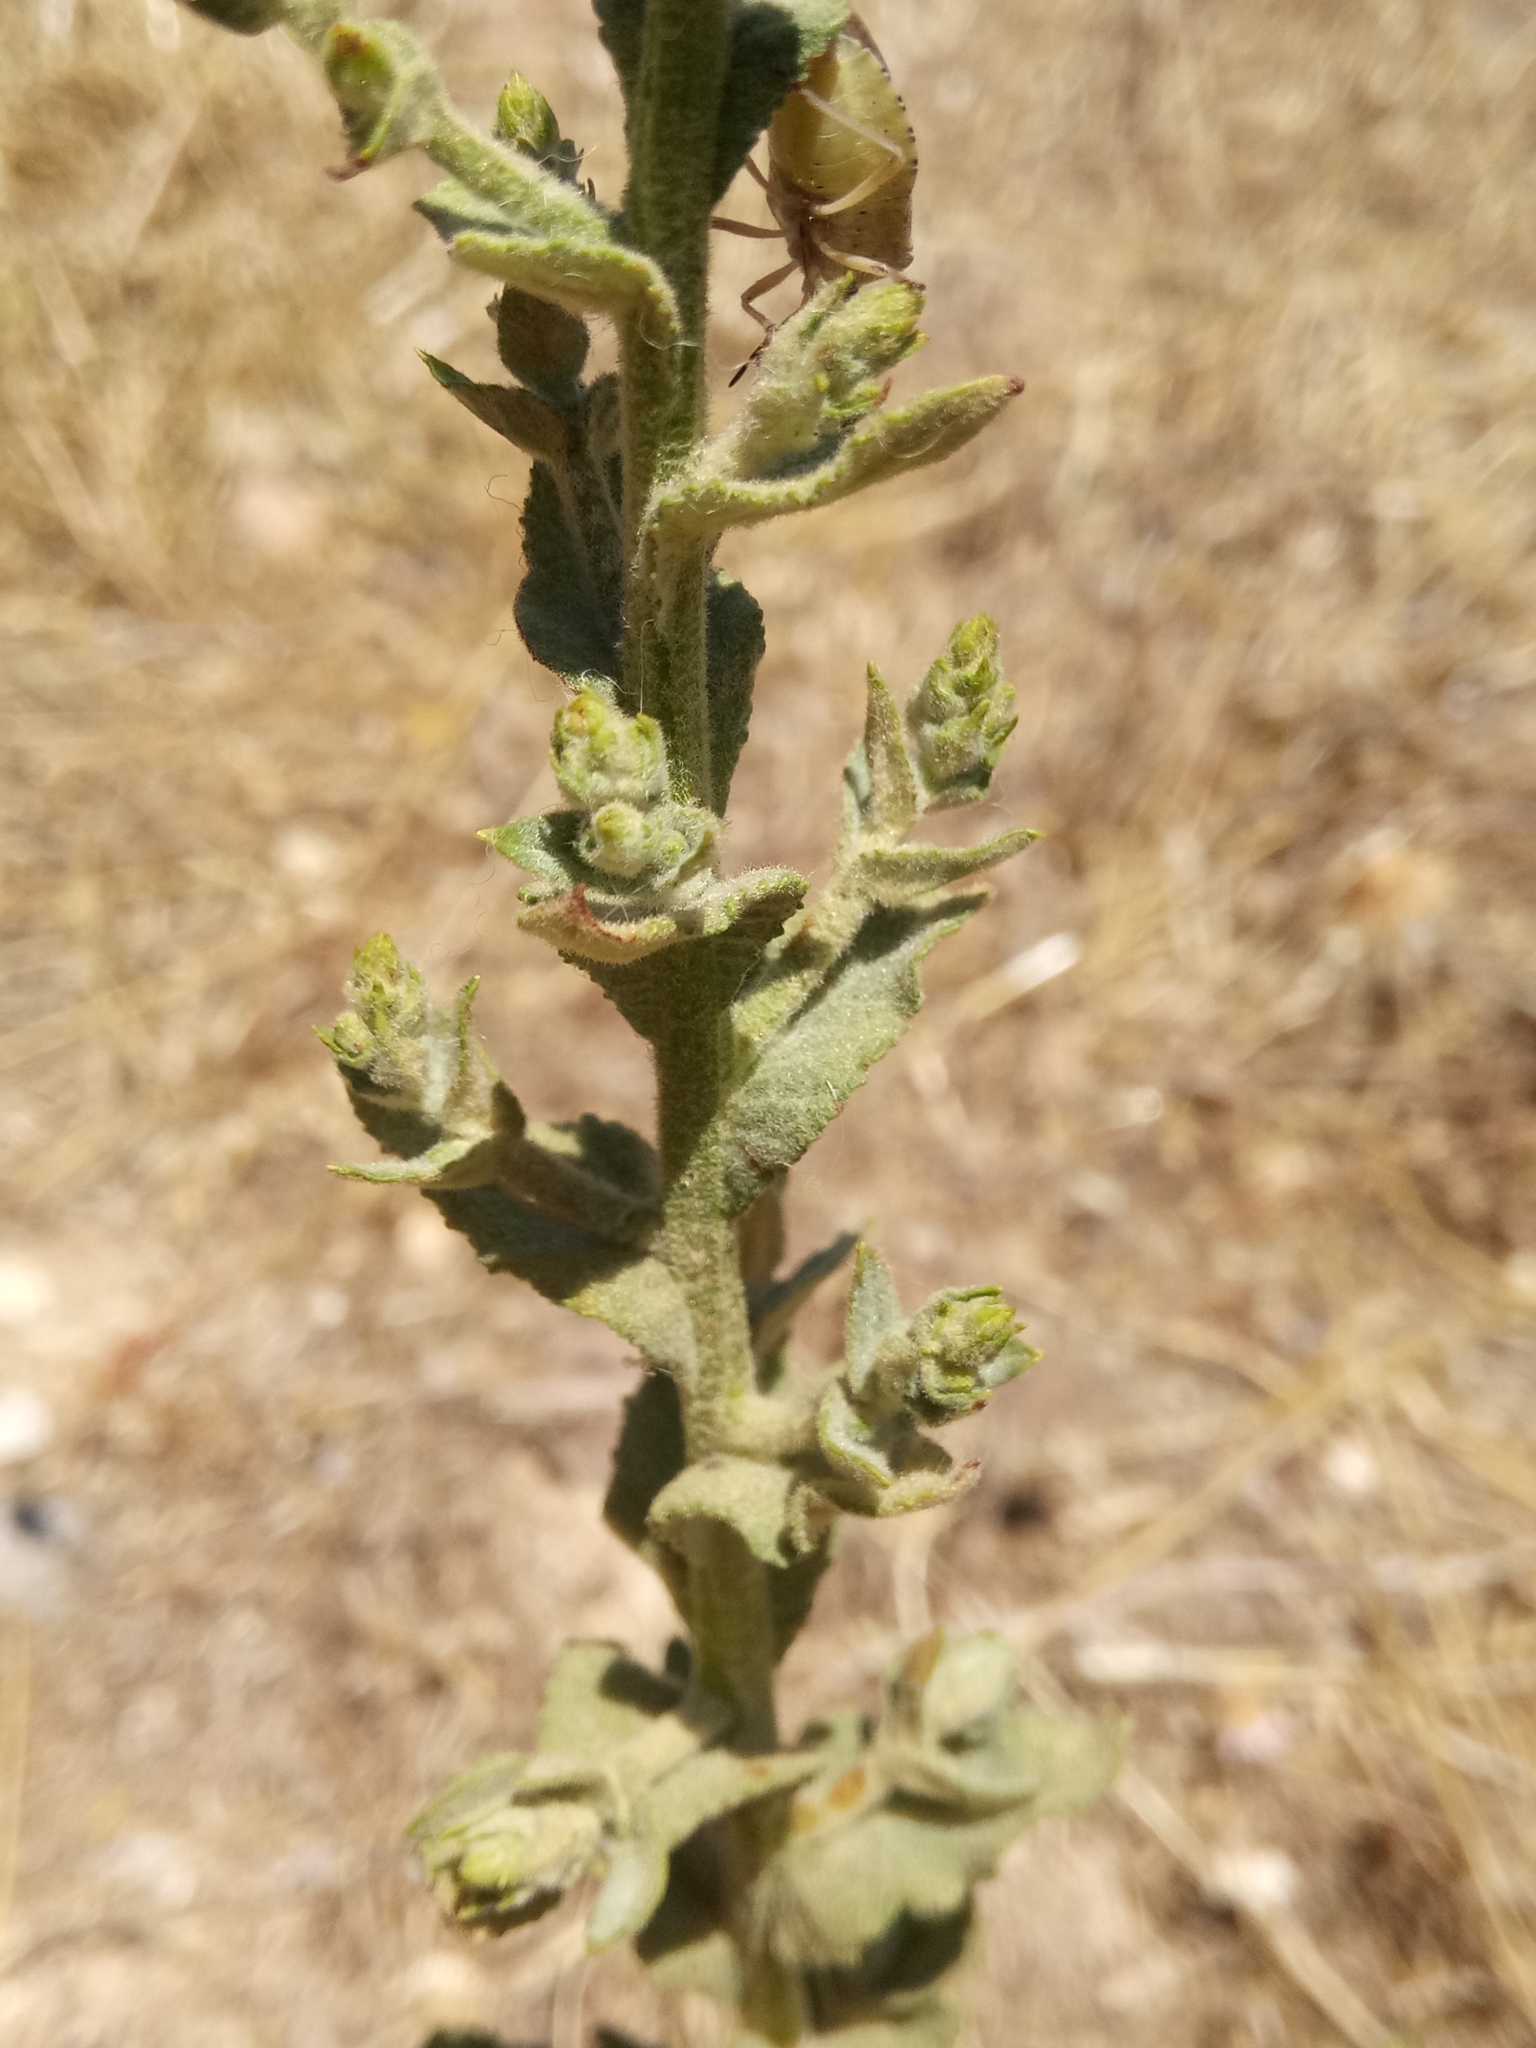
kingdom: Plantae
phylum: Tracheophyta
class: Magnoliopsida
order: Lamiales
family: Scrophulariaceae
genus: Verbascum
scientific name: Verbascum sinuatum
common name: Wavyleaf mullein
